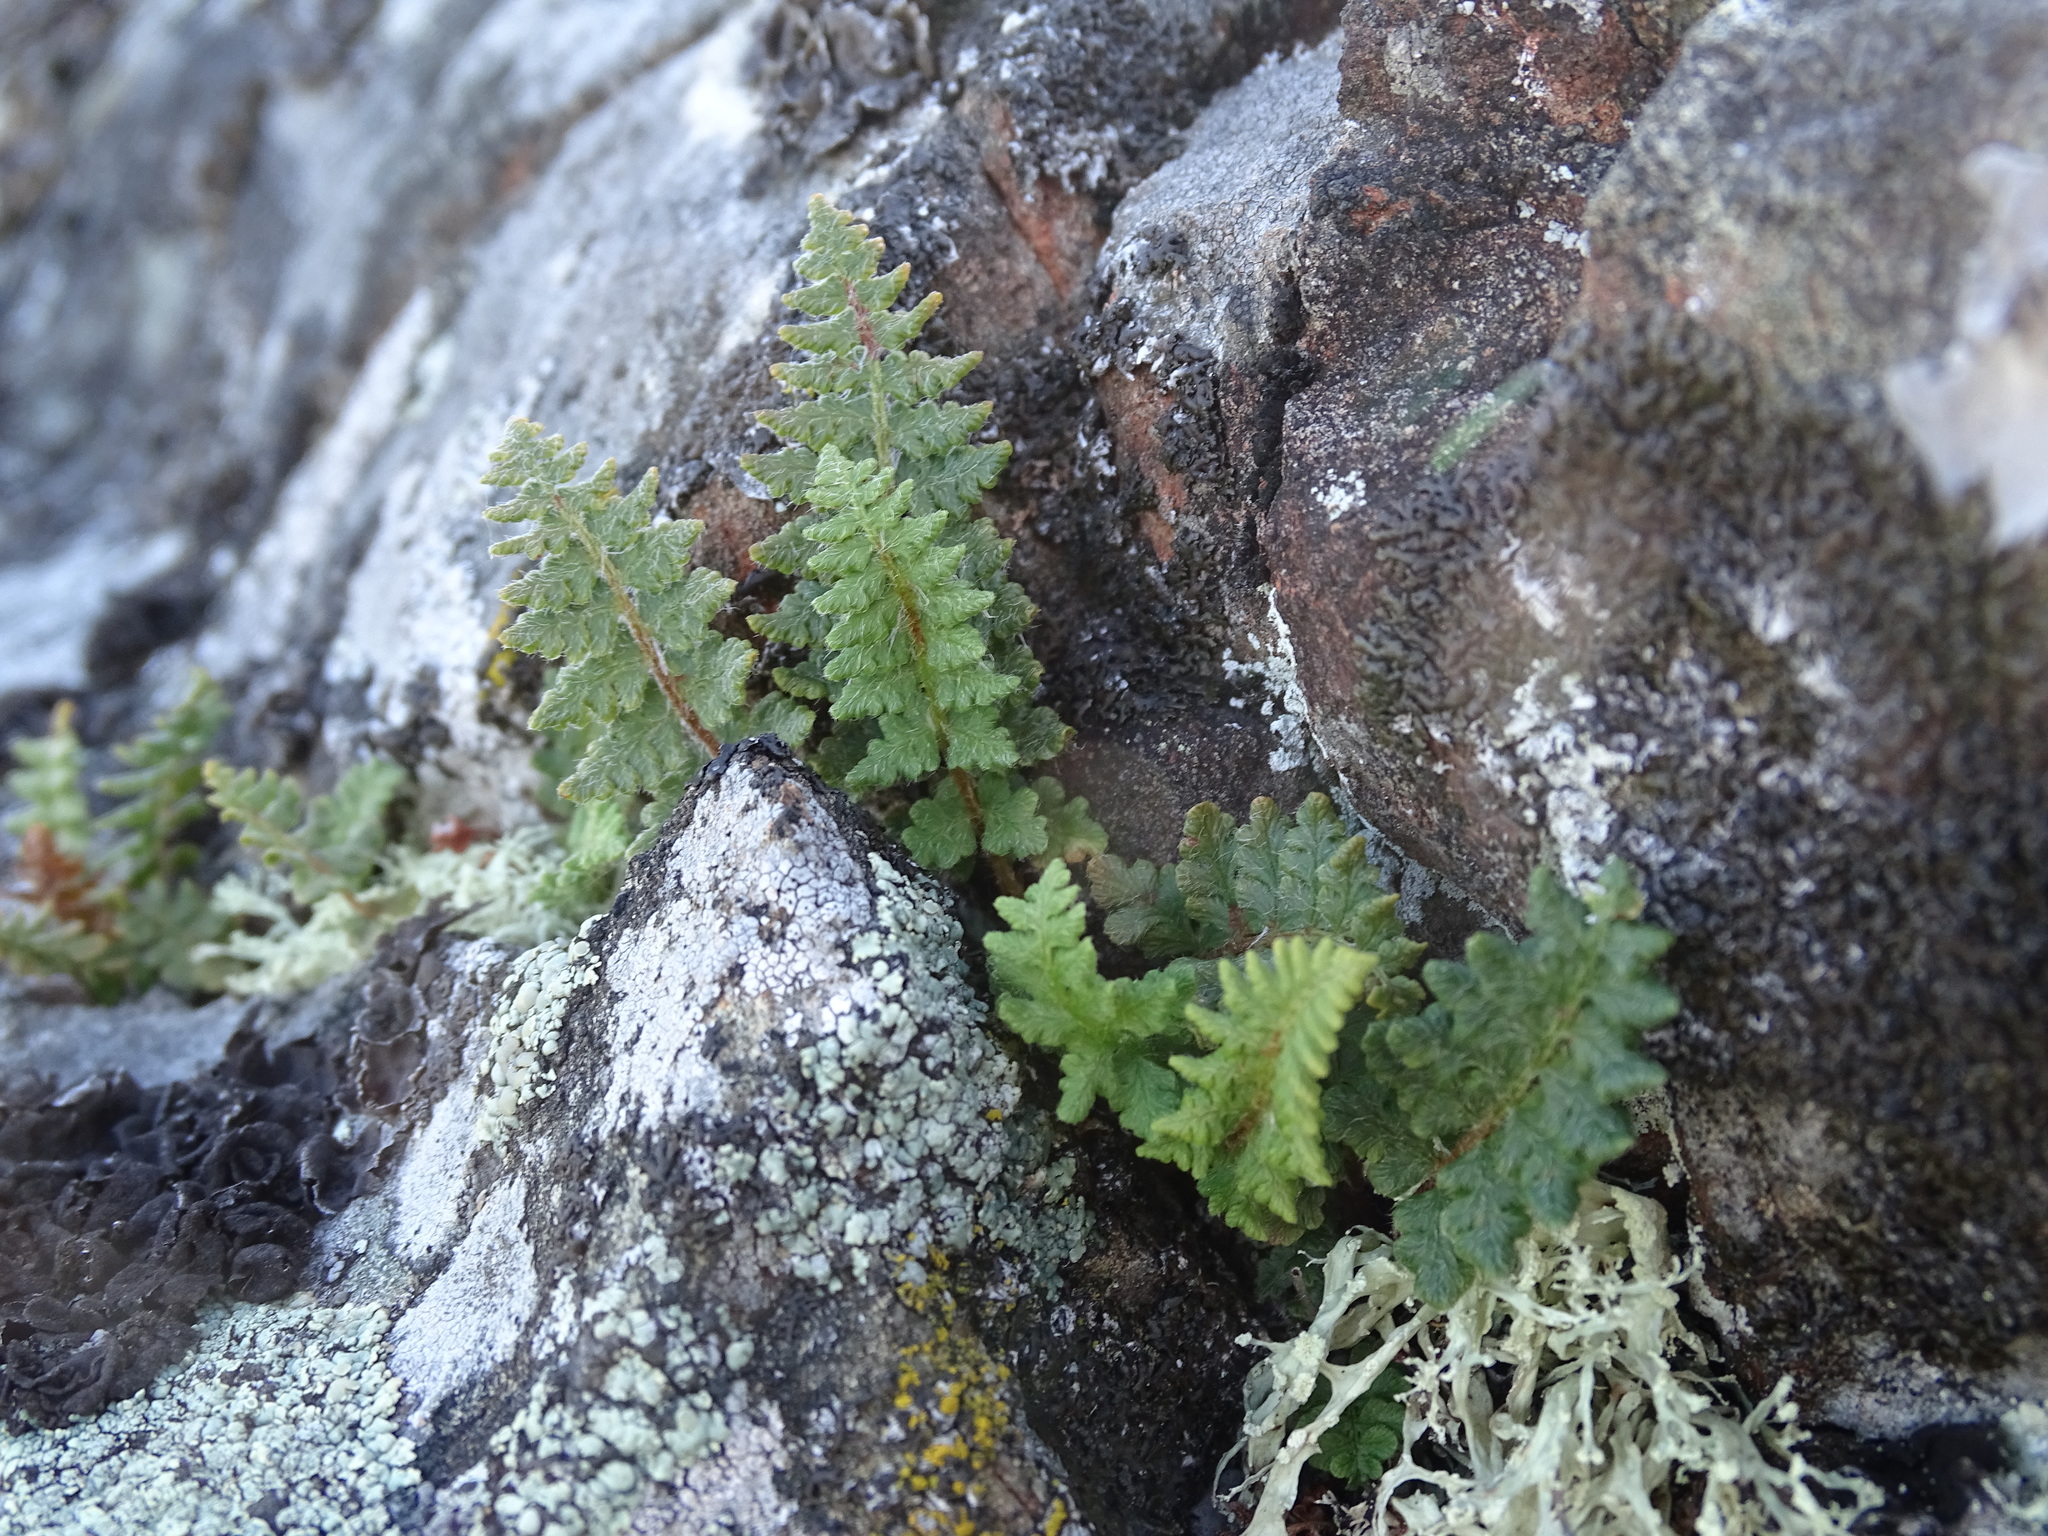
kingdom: Plantae
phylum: Tracheophyta
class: Polypodiopsida
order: Polypodiales
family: Woodsiaceae
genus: Woodsia
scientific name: Woodsia ilvensis
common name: Fragrant woodsia
